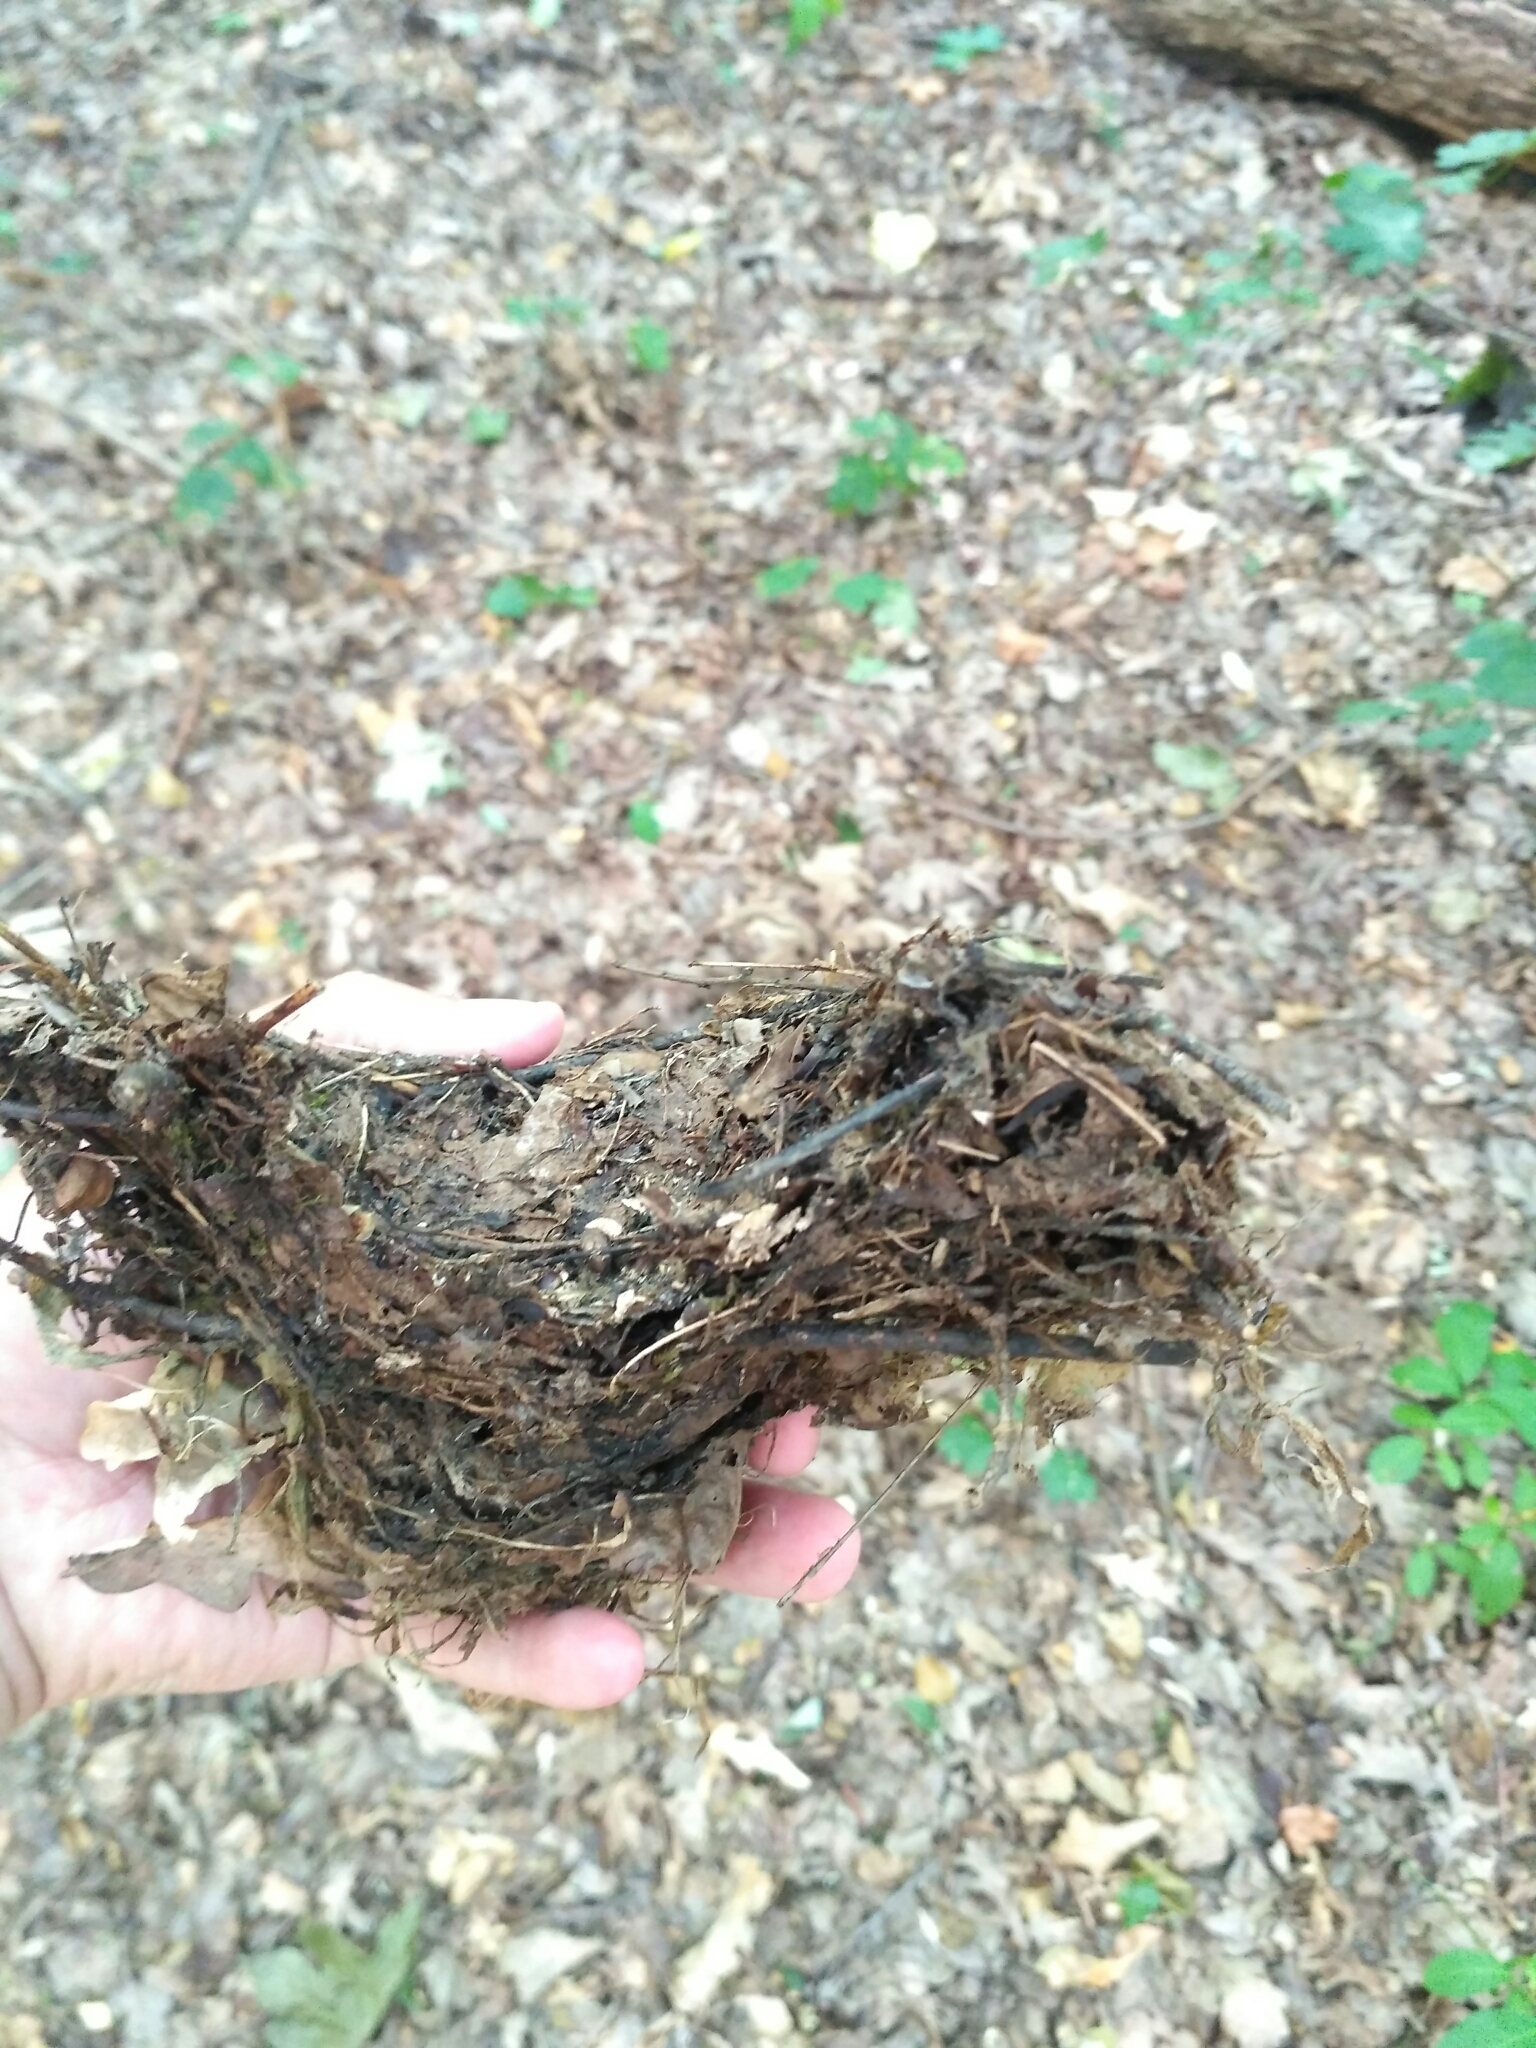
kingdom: Animalia
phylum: Chordata
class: Aves
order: Passeriformes
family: Turdidae
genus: Turdus
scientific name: Turdus philomelos
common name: Song thrush
